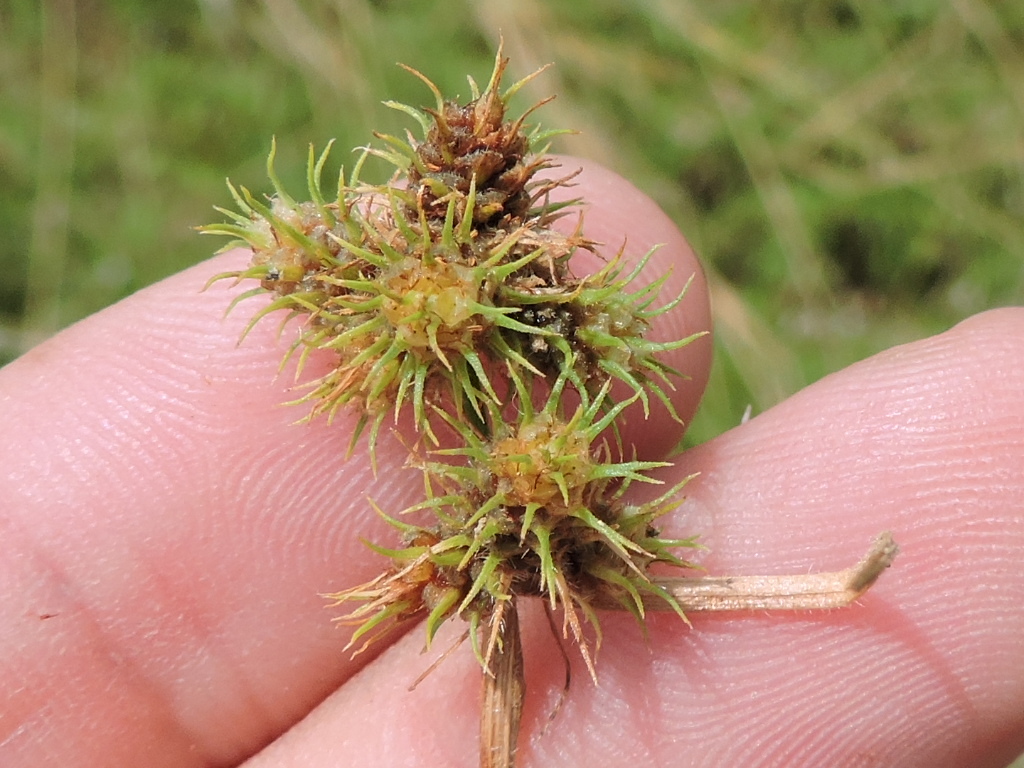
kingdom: Plantae
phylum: Tracheophyta
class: Liliopsida
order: Poales
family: Cyperaceae
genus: Fuirena
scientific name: Fuirena simplex
